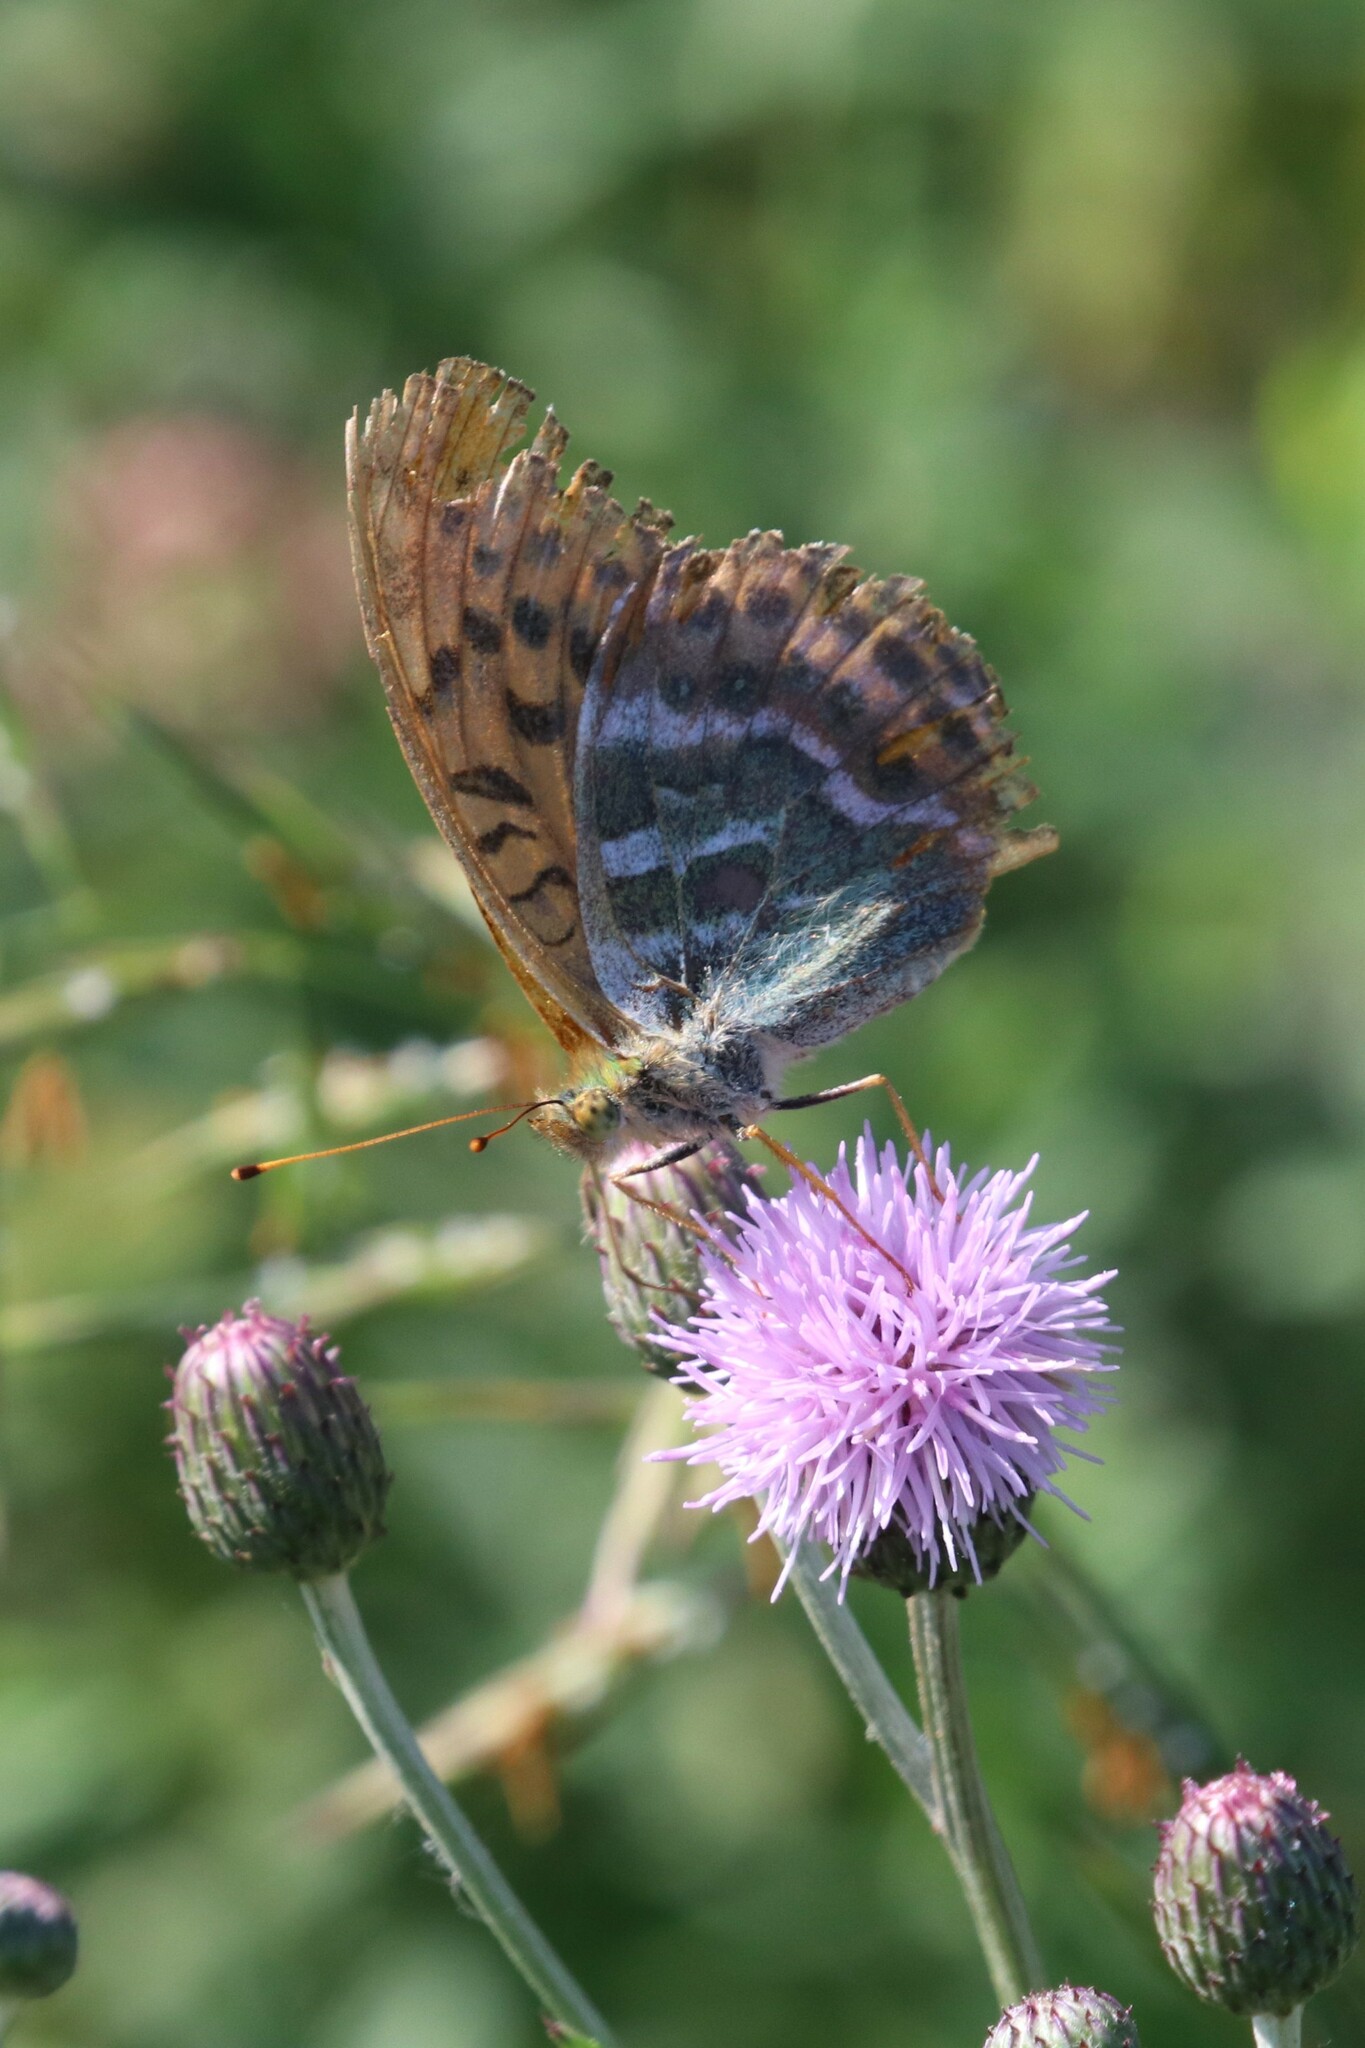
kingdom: Animalia
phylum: Arthropoda
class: Insecta
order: Lepidoptera
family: Nymphalidae
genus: Argynnis
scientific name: Argynnis paphia
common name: Silver-washed fritillary
